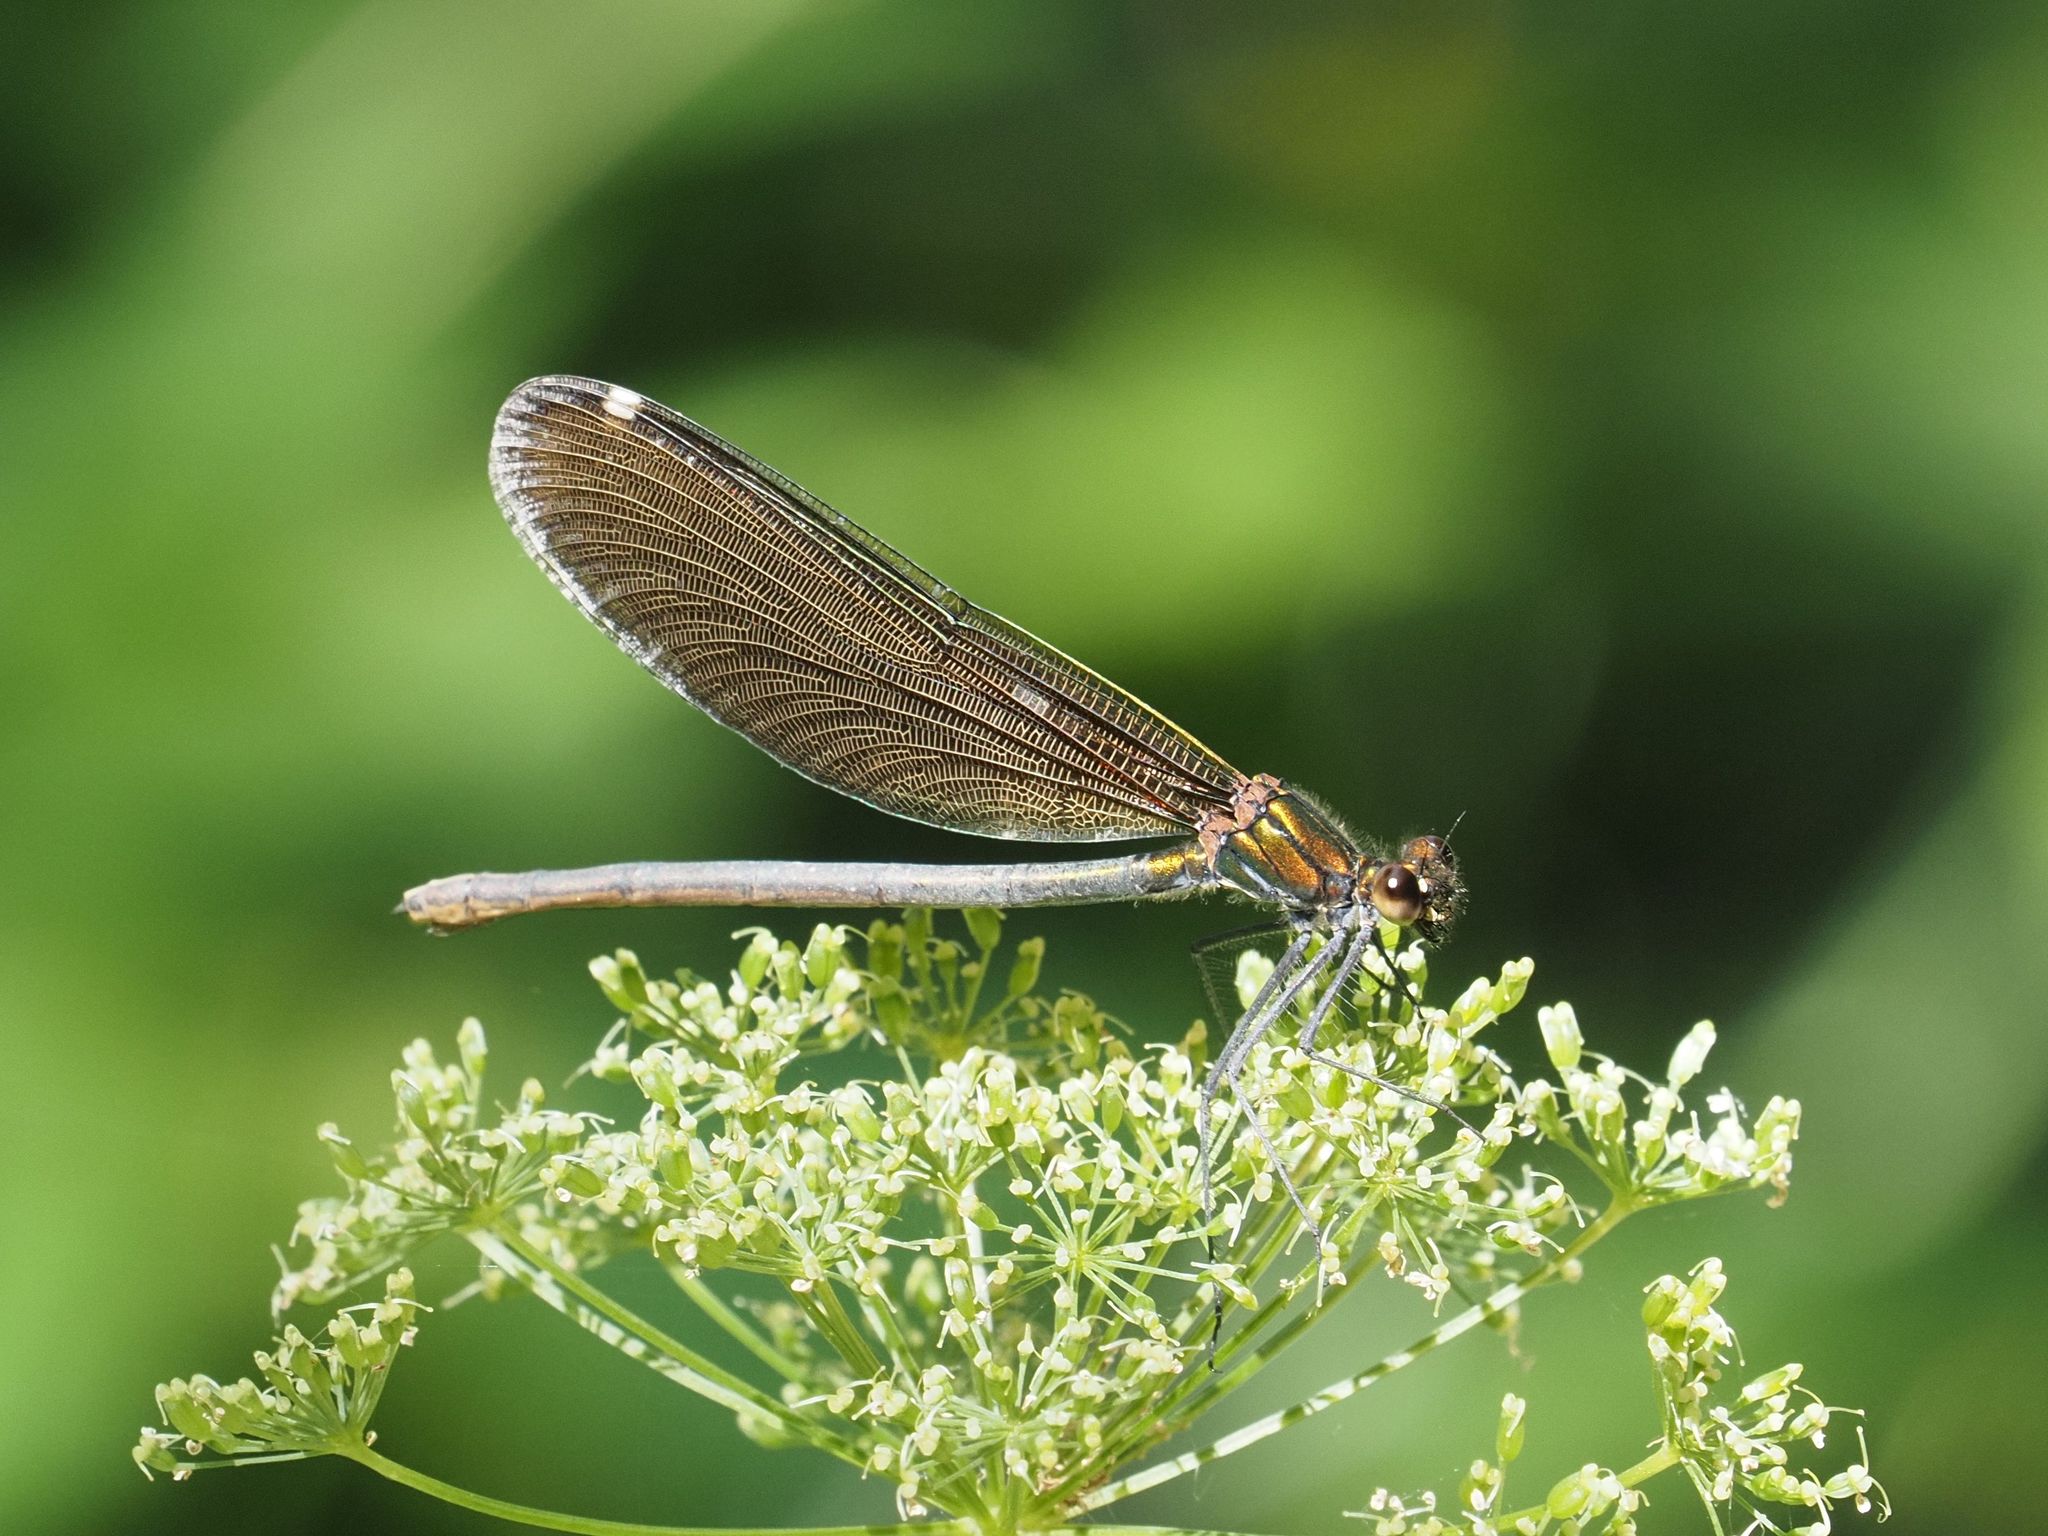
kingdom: Animalia
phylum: Arthropoda
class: Insecta
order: Odonata
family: Calopterygidae
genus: Calopteryx
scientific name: Calopteryx virgo
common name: Beautiful demoiselle
